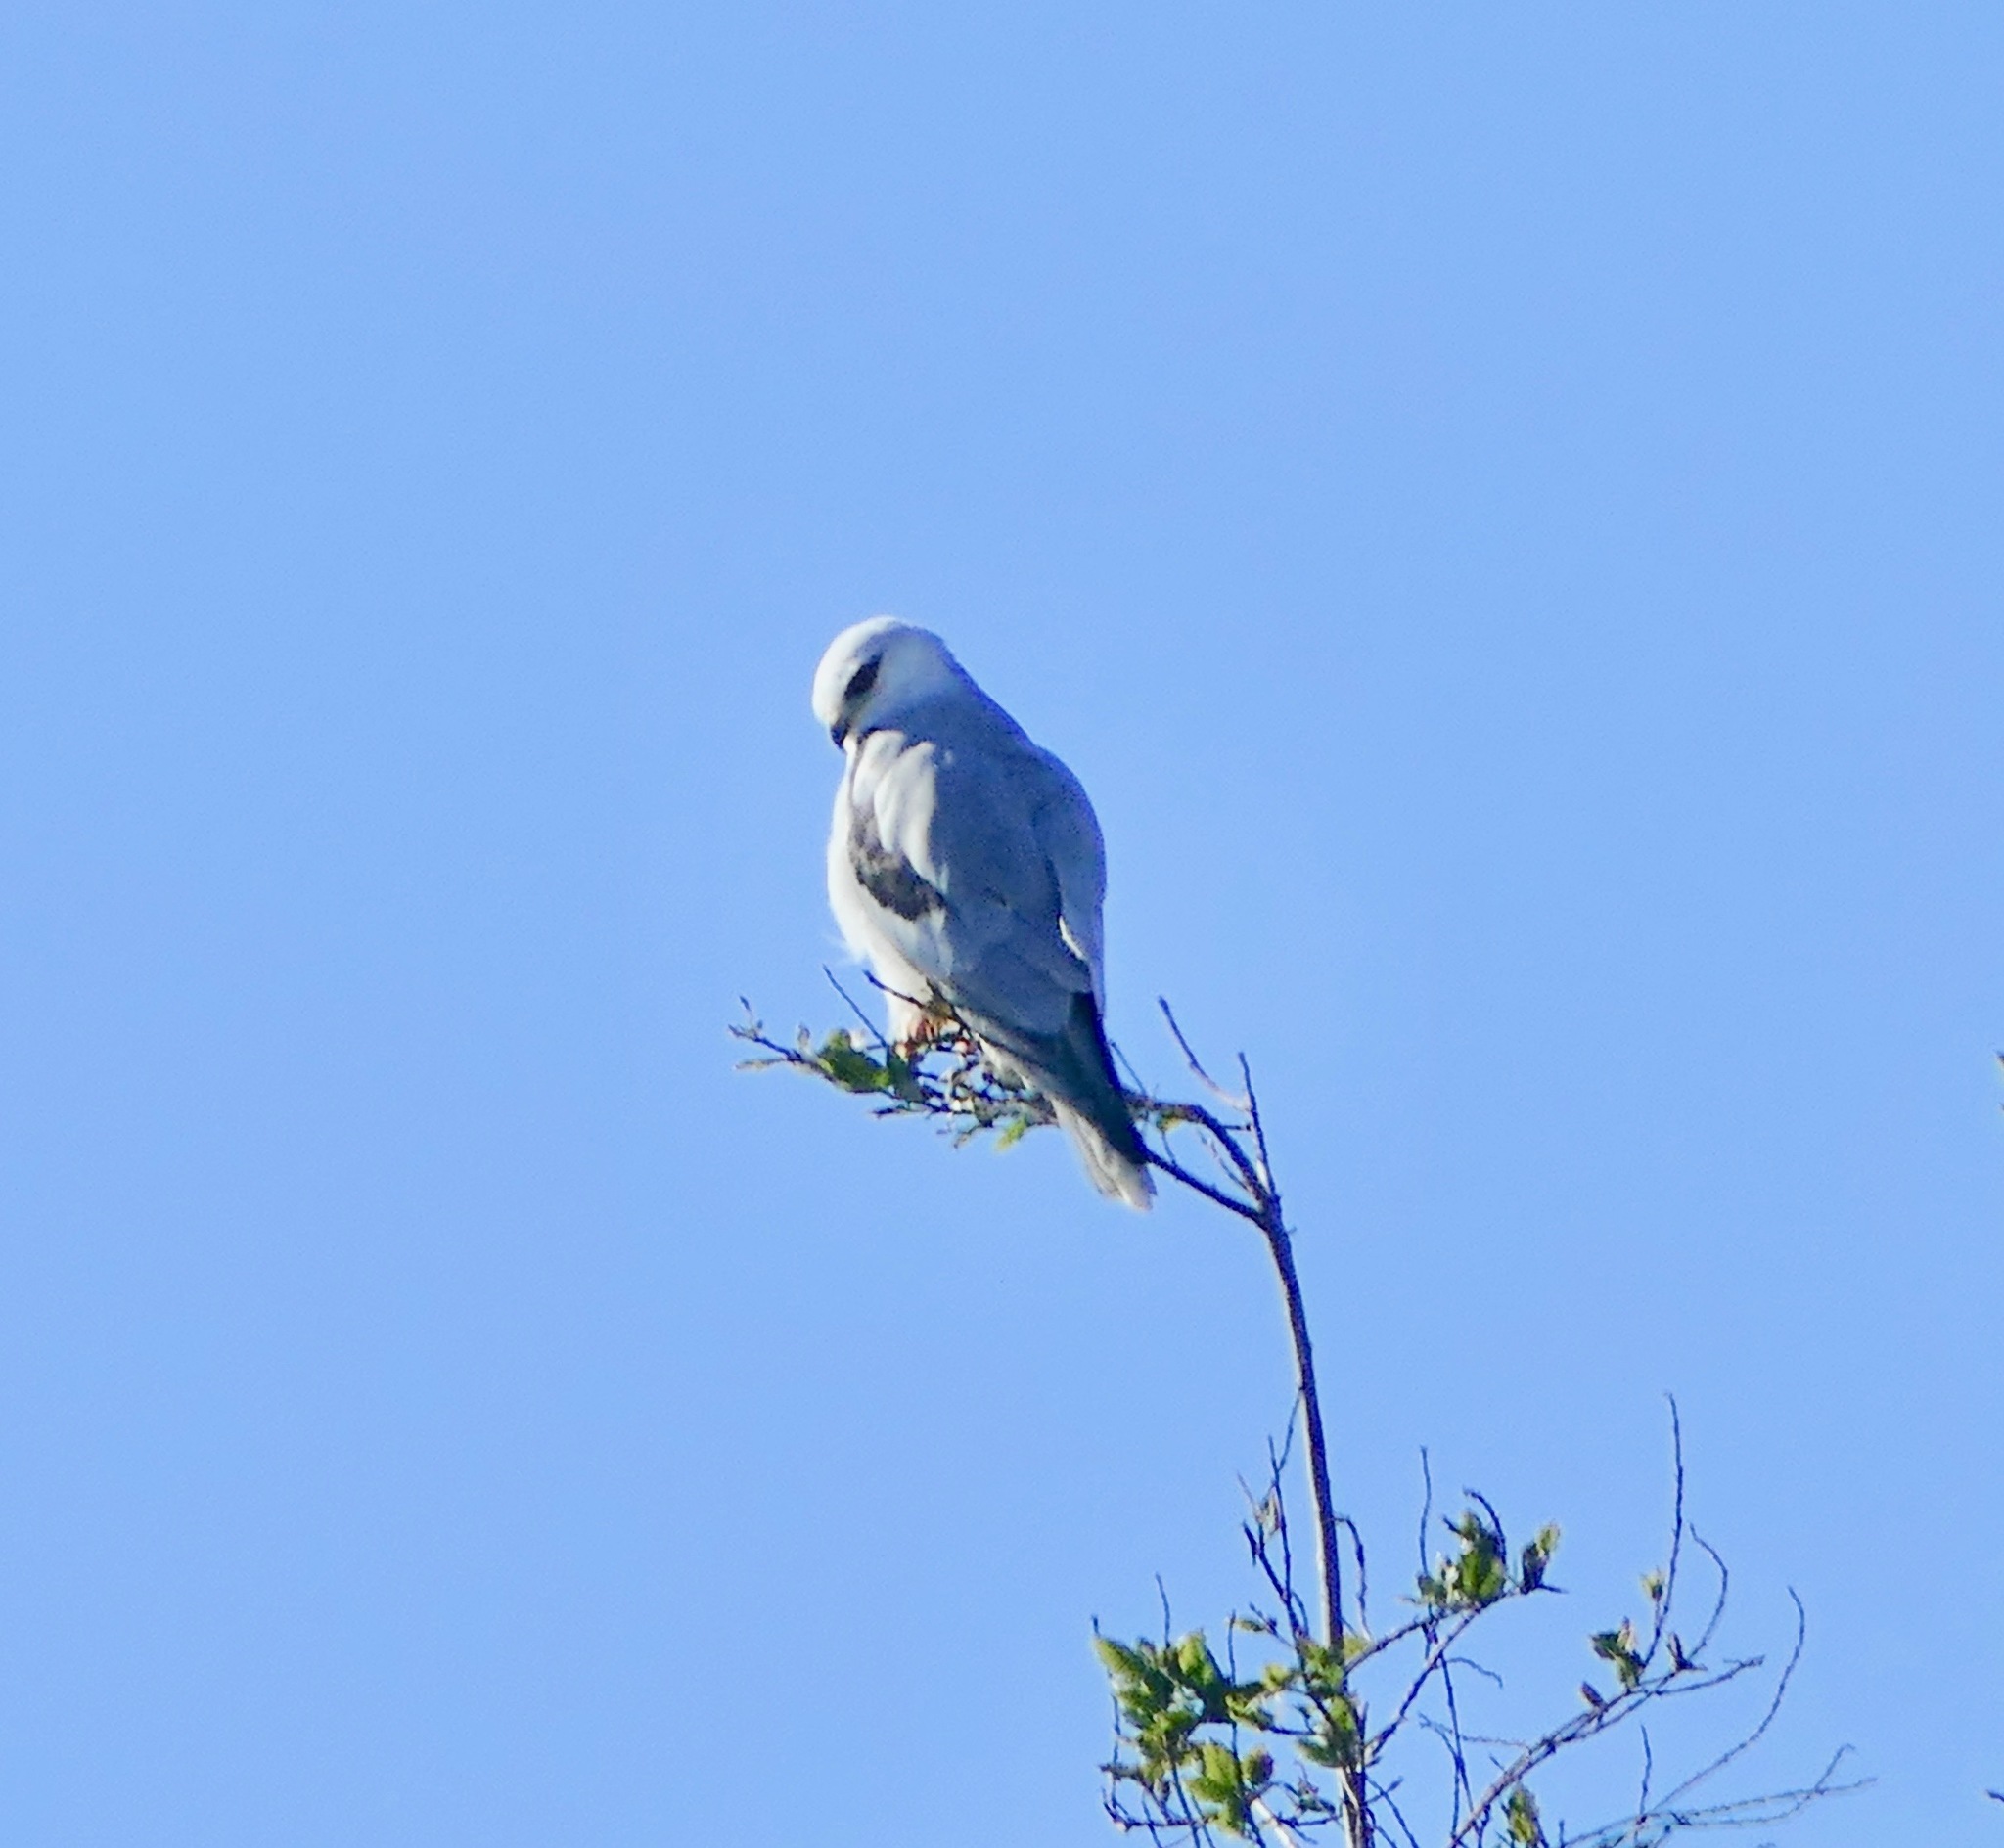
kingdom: Animalia
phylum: Chordata
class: Aves
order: Accipitriformes
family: Accipitridae
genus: Elanus
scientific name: Elanus leucurus
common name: White-tailed kite
